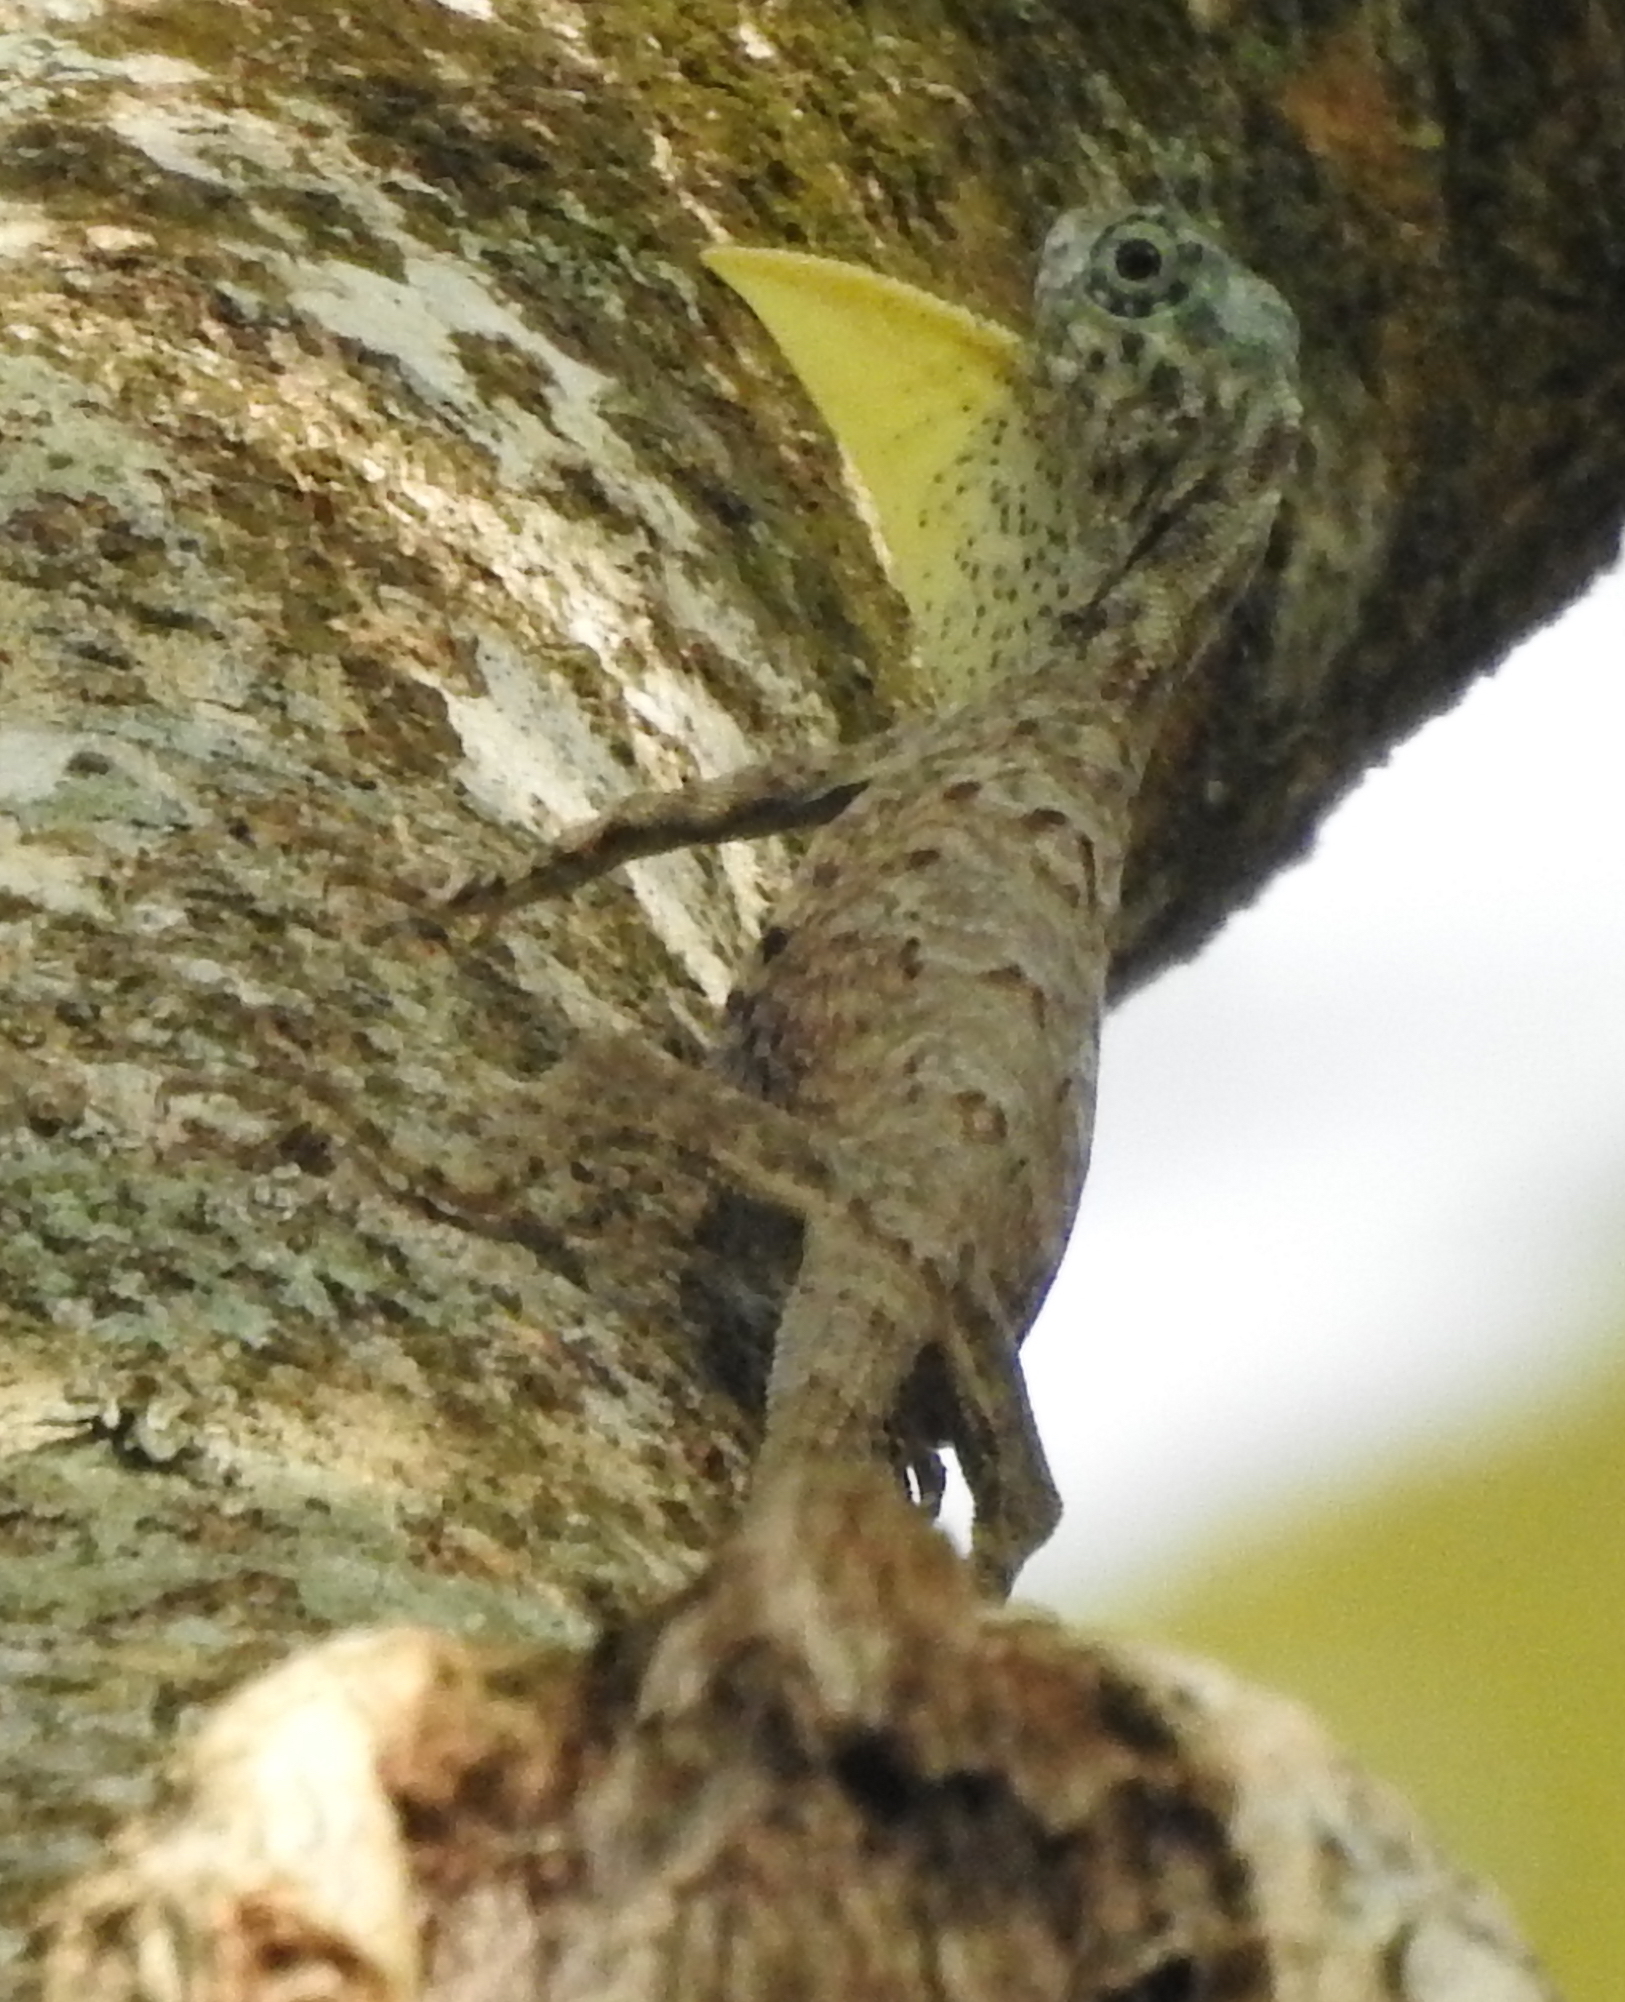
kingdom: Animalia
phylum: Chordata
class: Squamata
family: Agamidae
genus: Draco
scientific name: Draco sumatranus
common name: Common gliding lizard
